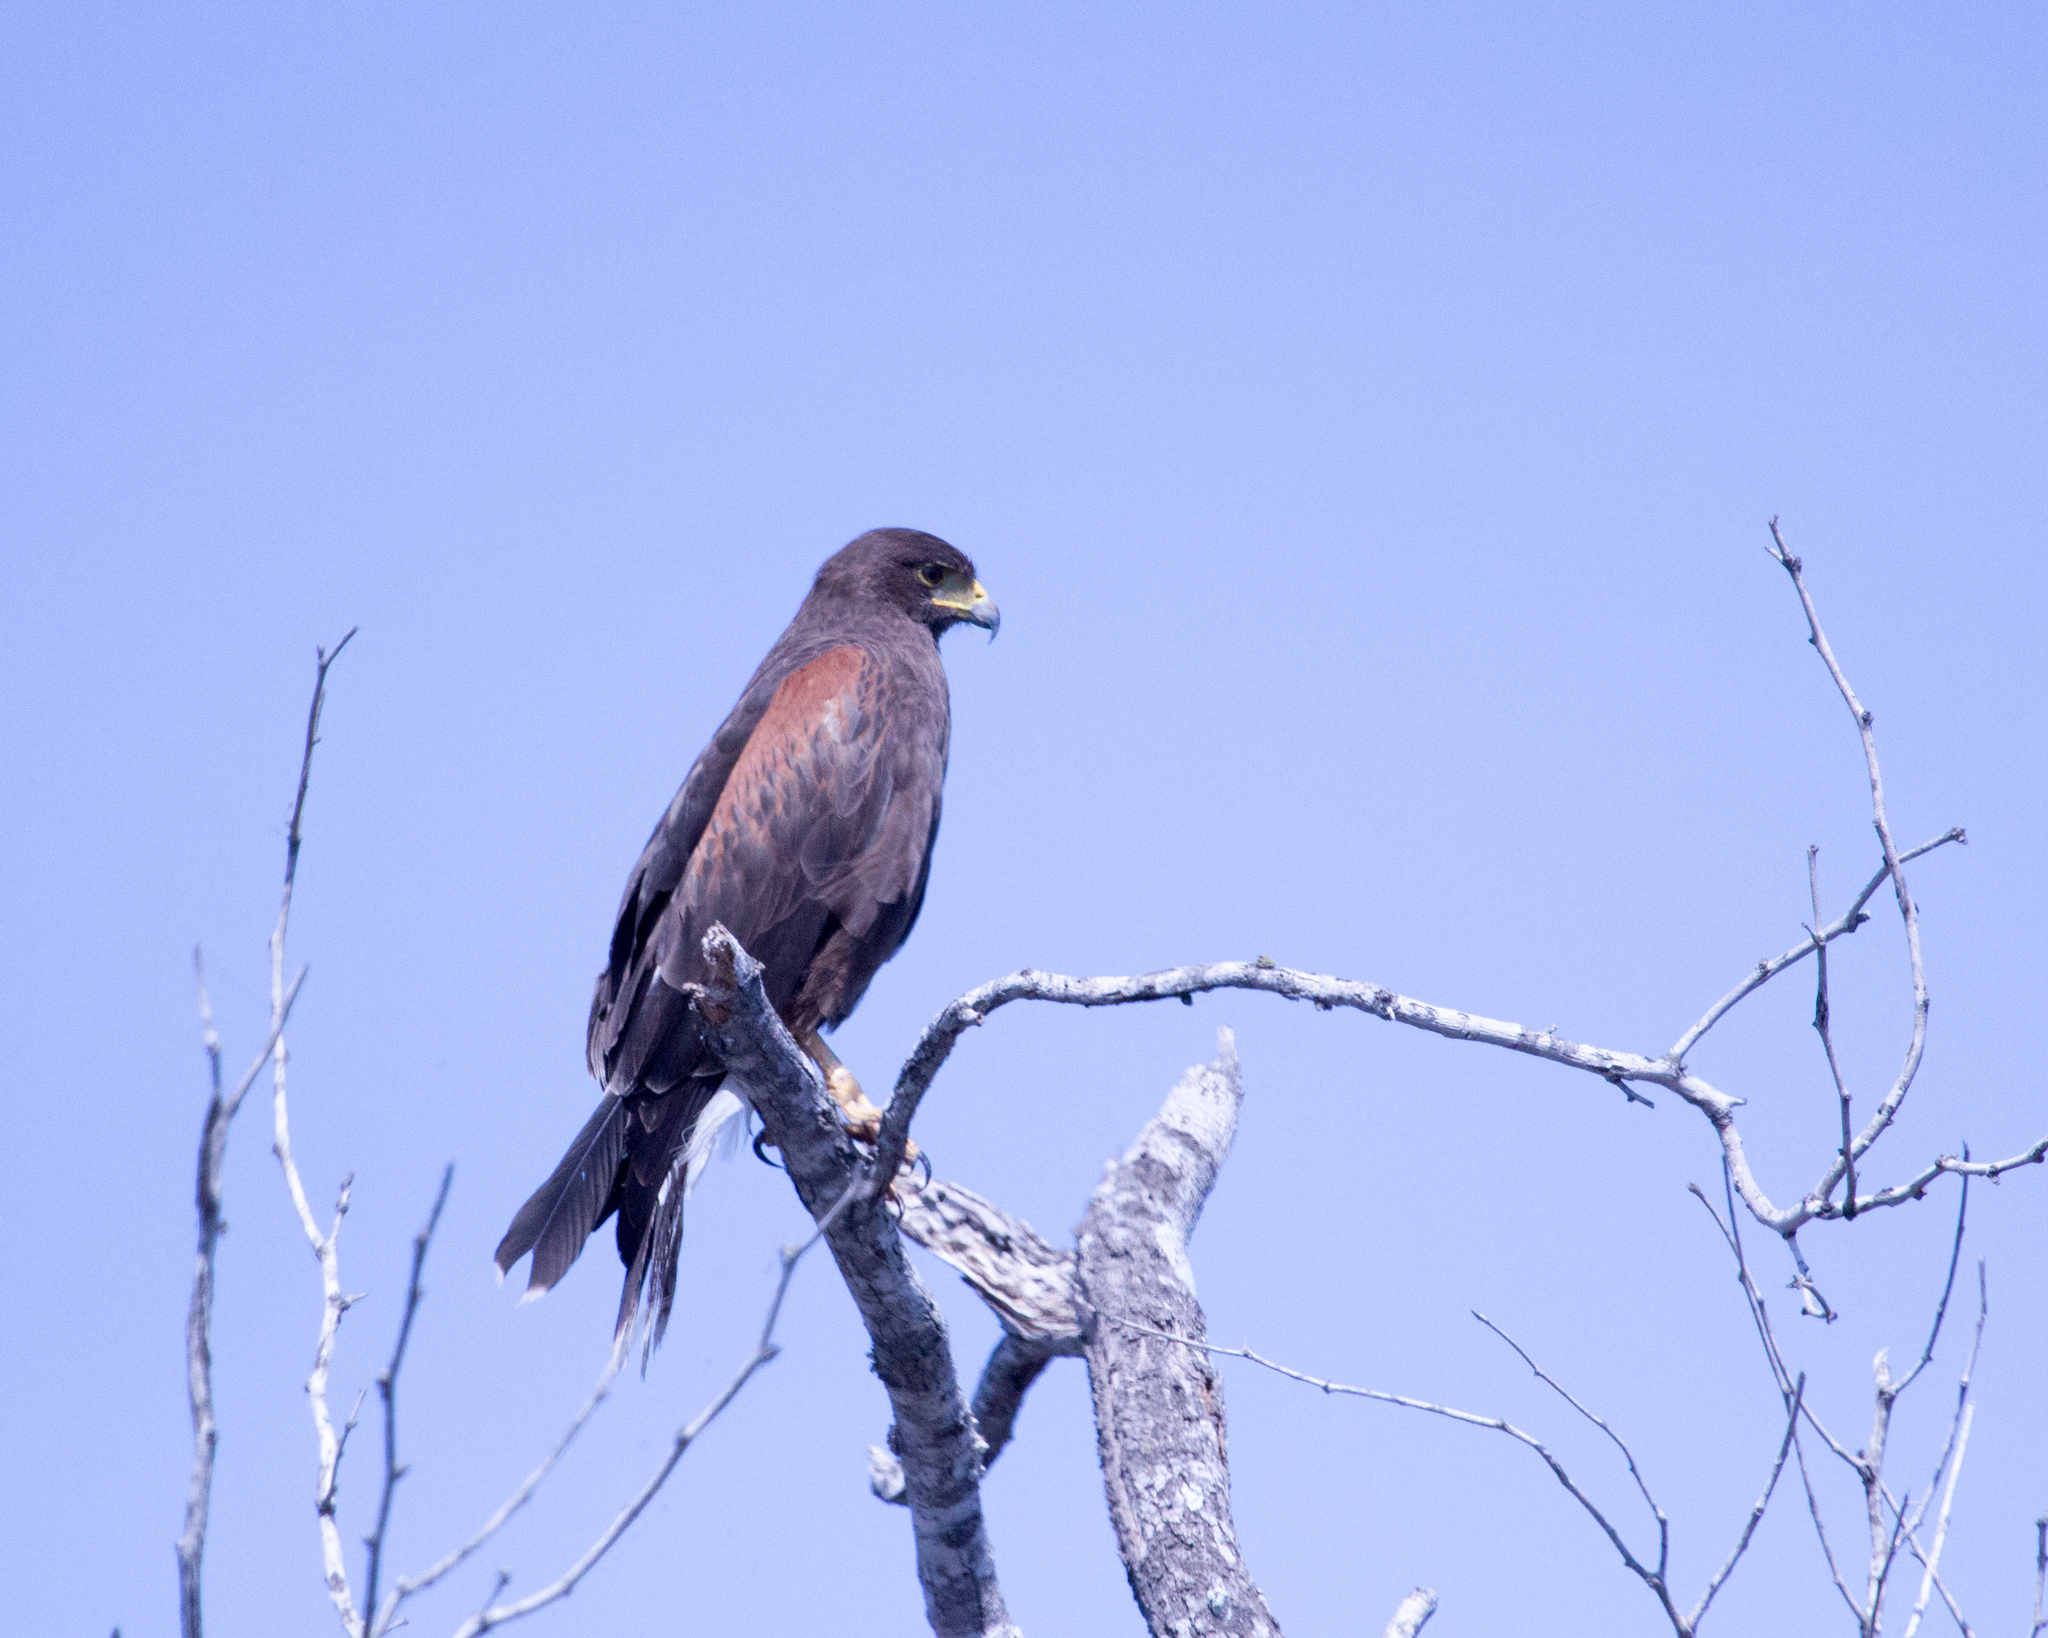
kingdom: Animalia
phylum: Chordata
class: Aves
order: Accipitriformes
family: Accipitridae
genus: Parabuteo
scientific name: Parabuteo unicinctus
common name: Harris's hawk
